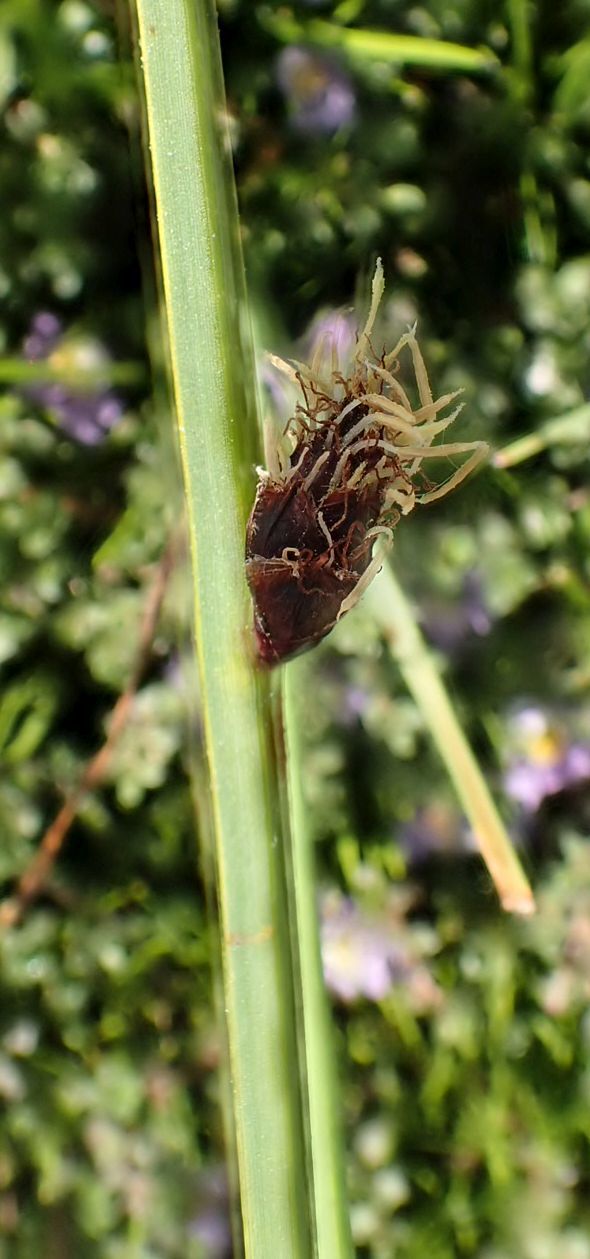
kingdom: Plantae
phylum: Tracheophyta
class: Liliopsida
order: Poales
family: Cyperaceae
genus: Schoenoplectus
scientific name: Schoenoplectus pungens
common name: Sharp club-rush
